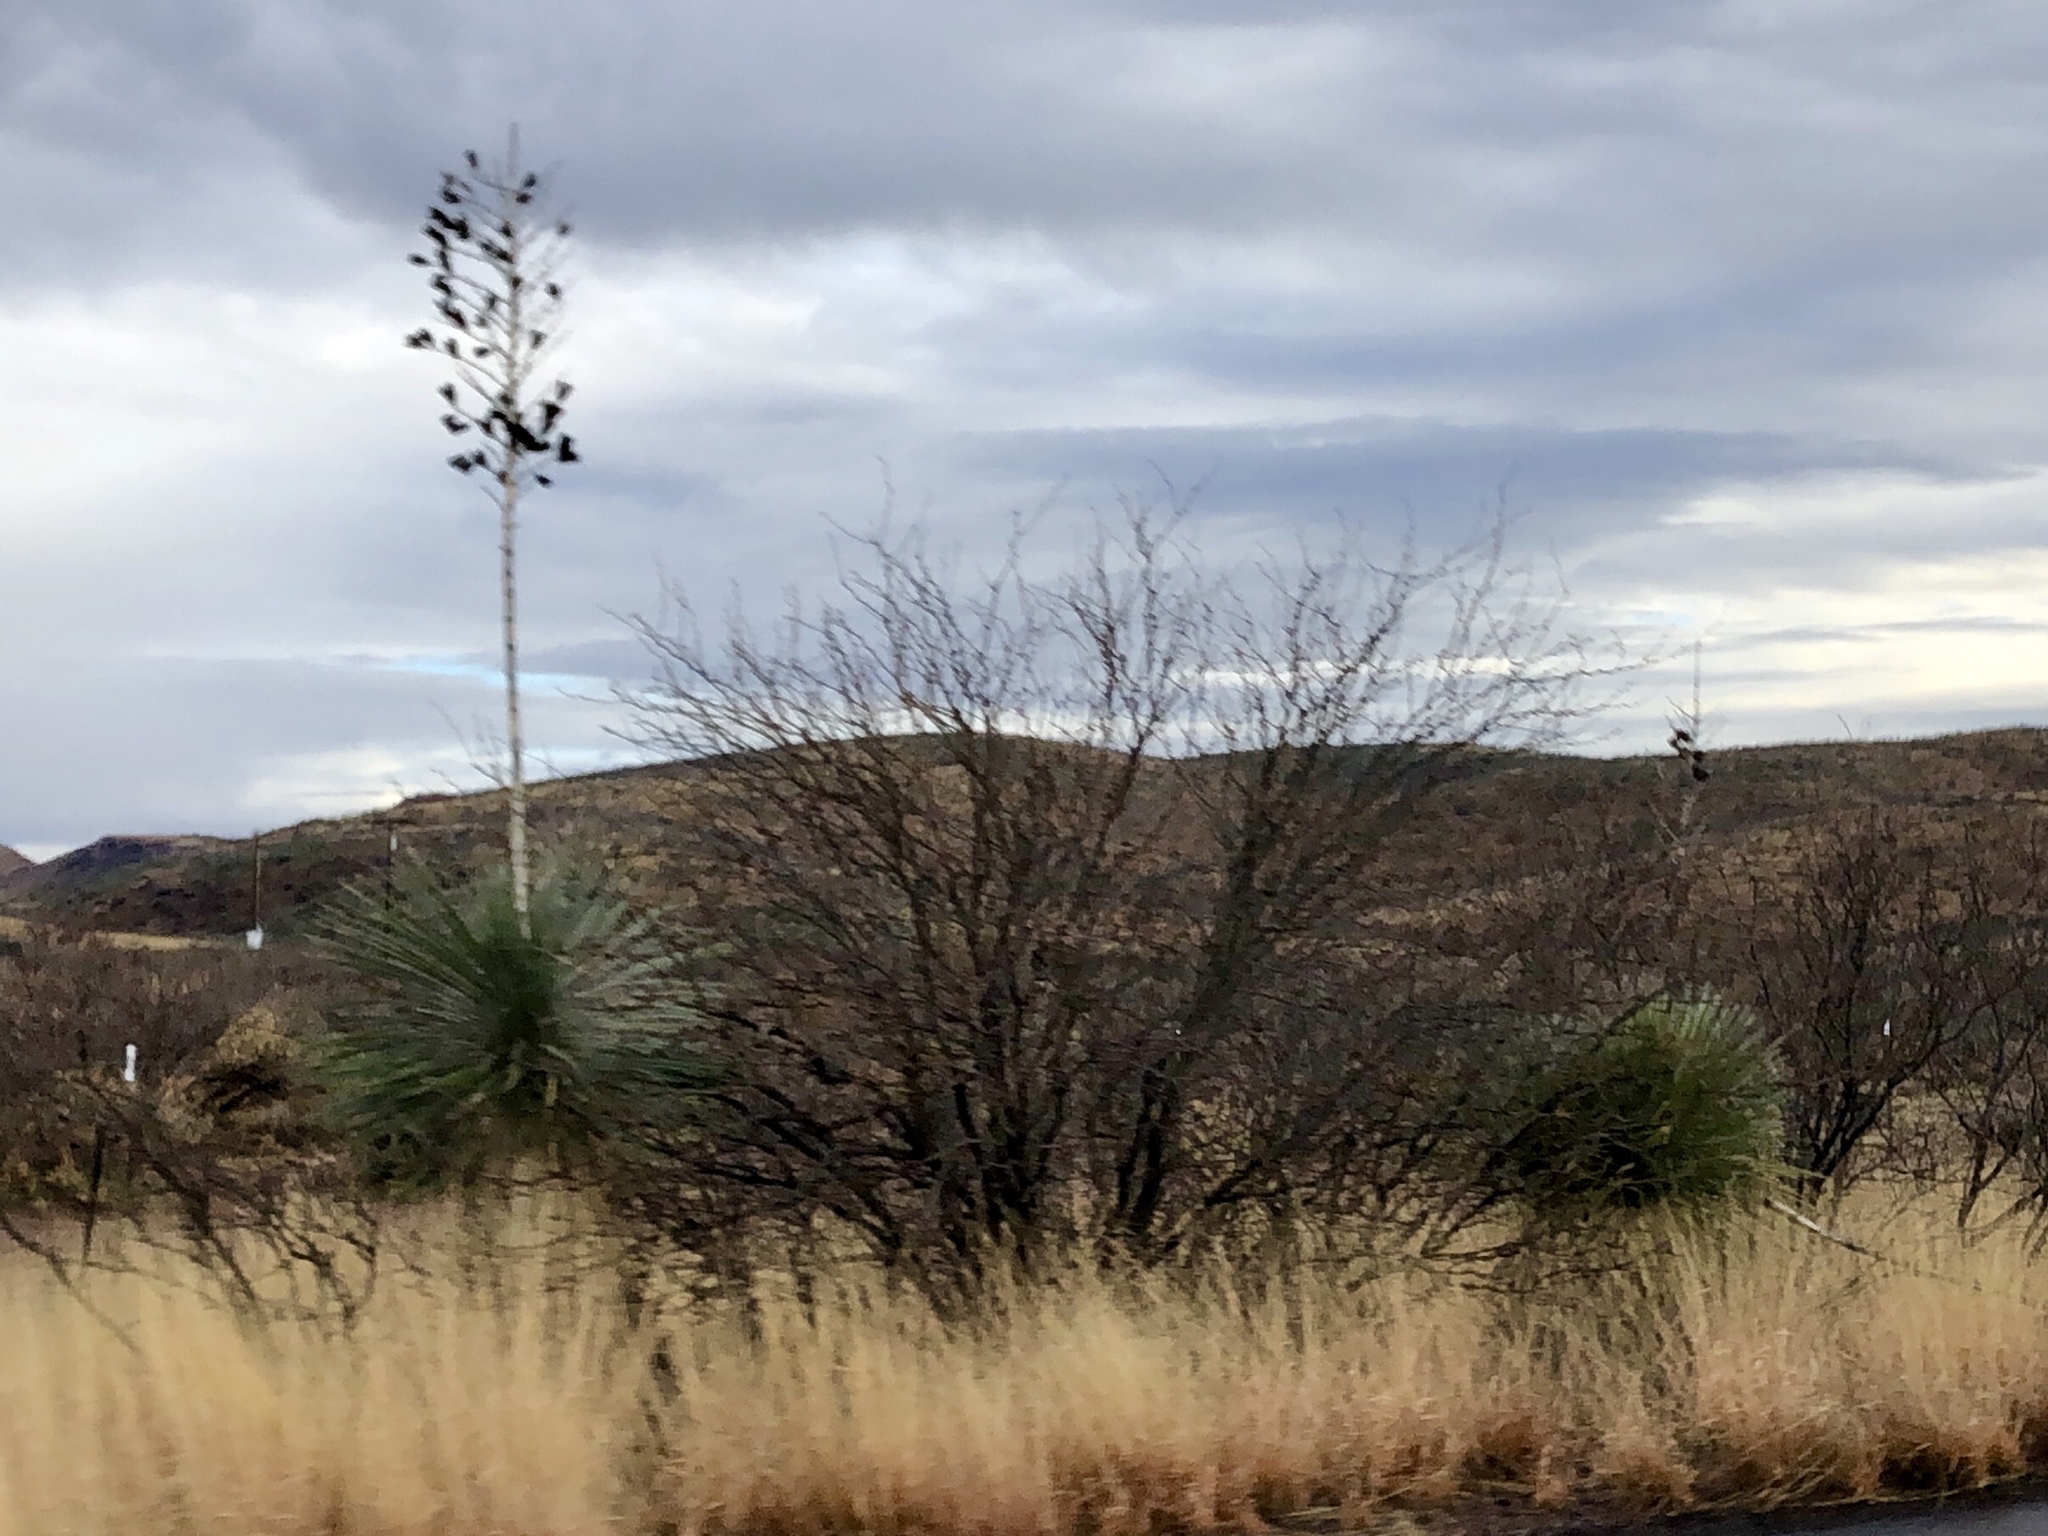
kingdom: Plantae
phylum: Tracheophyta
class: Liliopsida
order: Asparagales
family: Asparagaceae
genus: Yucca
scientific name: Yucca elata
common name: Palmella
